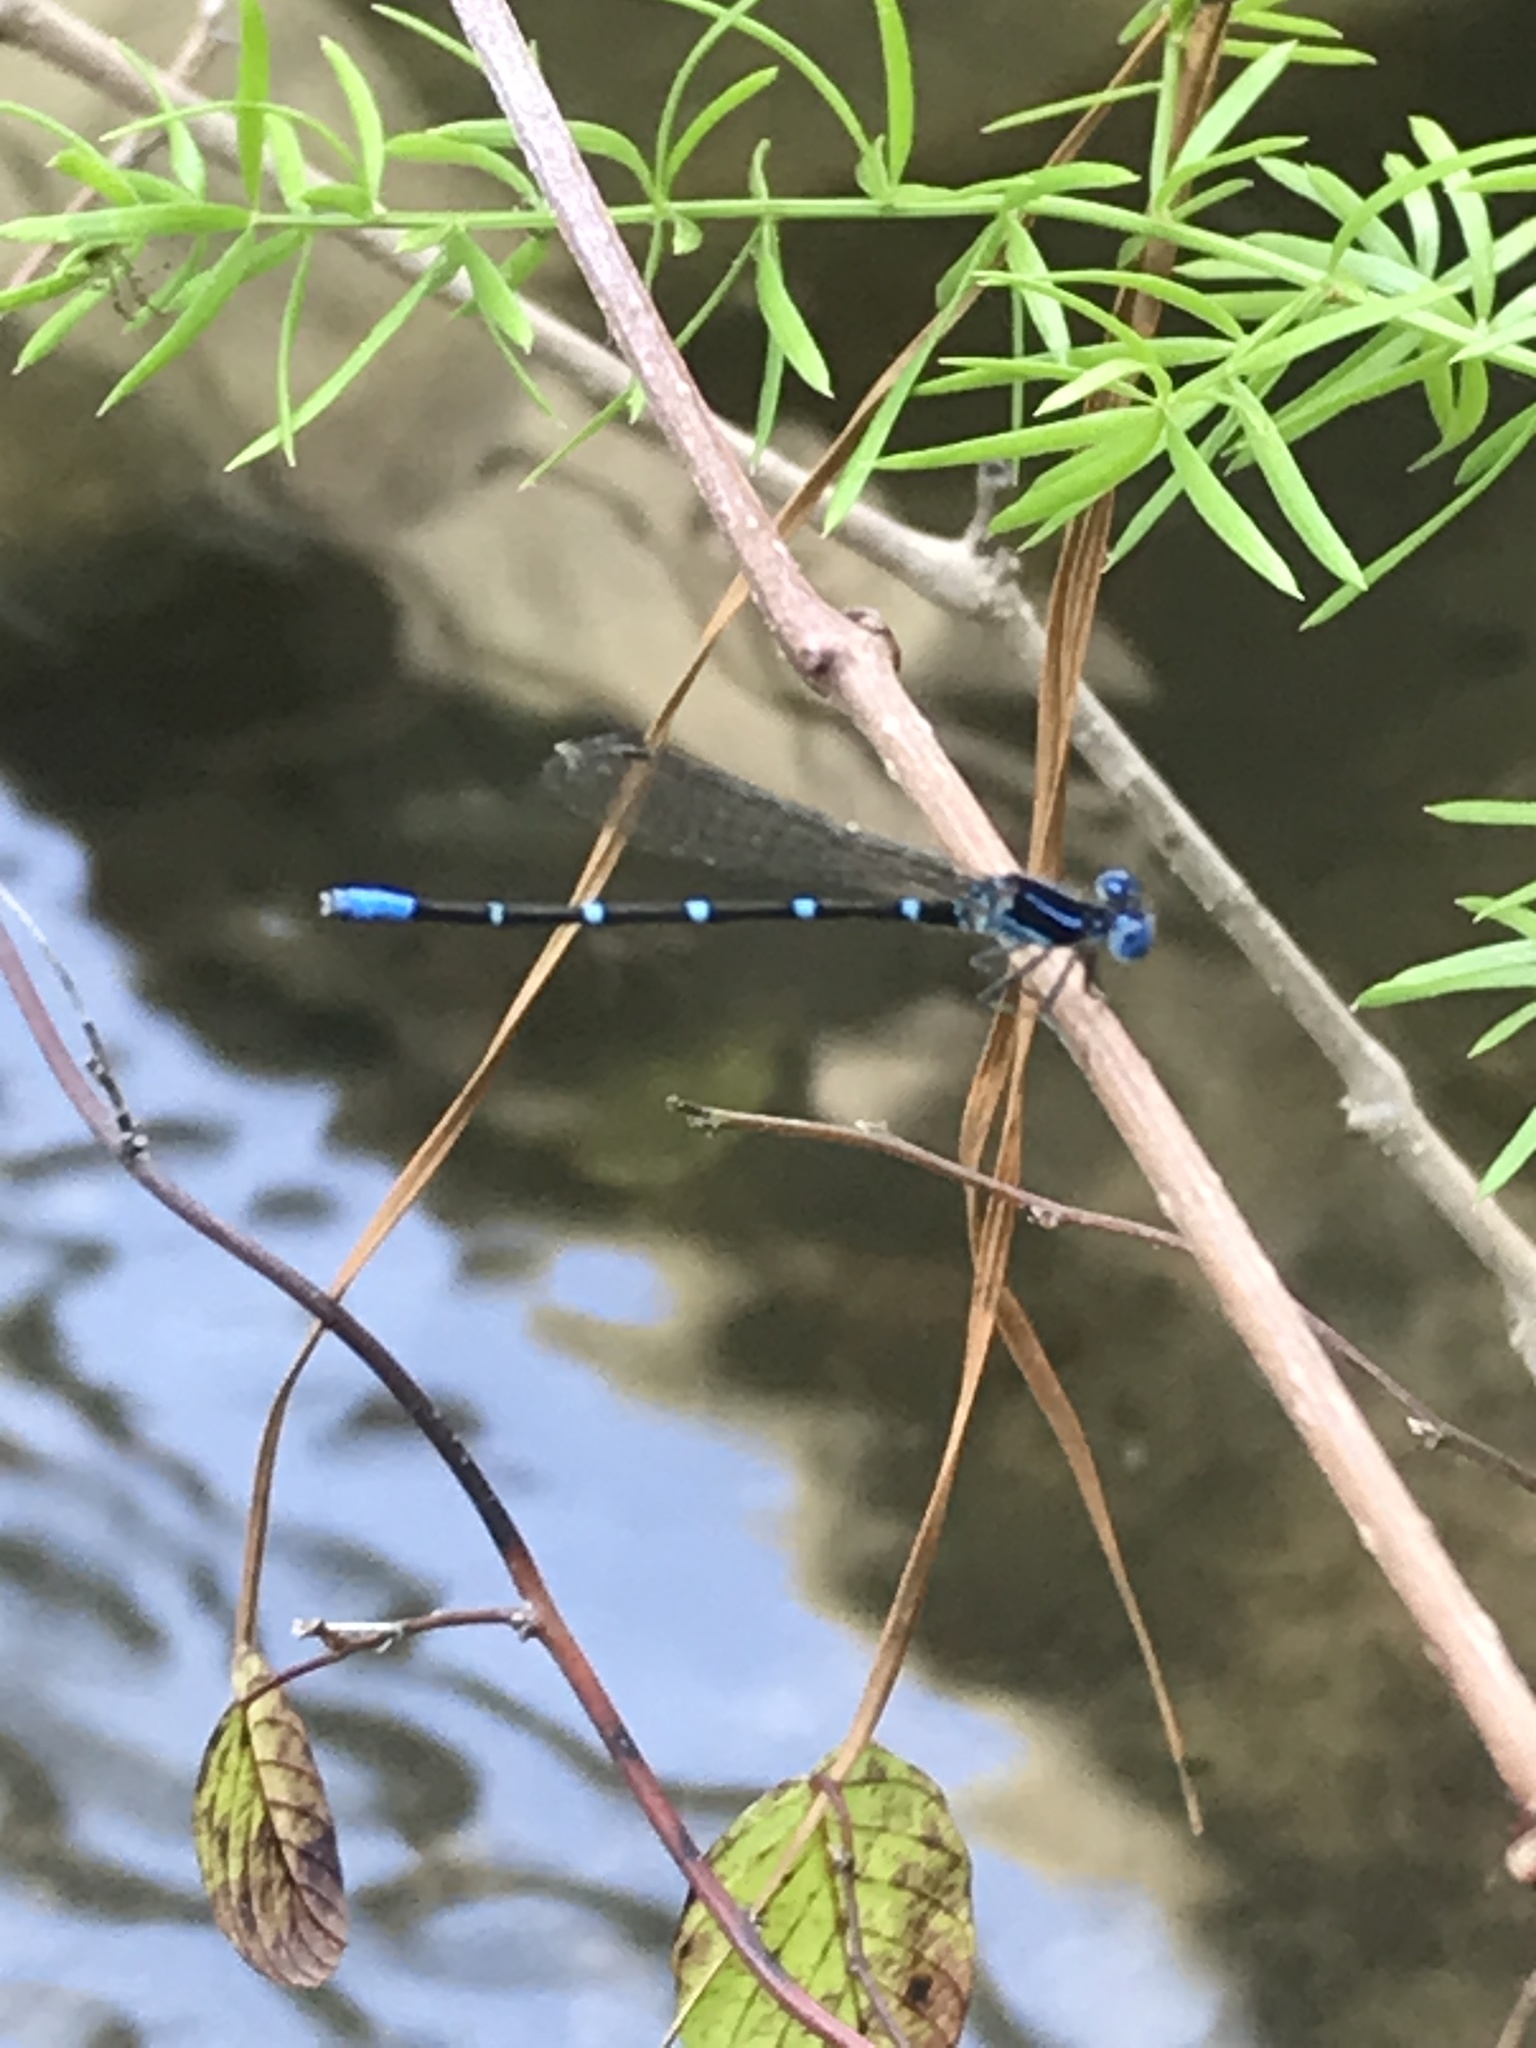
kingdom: Animalia
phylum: Arthropoda
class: Insecta
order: Odonata
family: Coenagrionidae
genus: Argia
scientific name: Argia sedula
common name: Blue-ringed dancer
